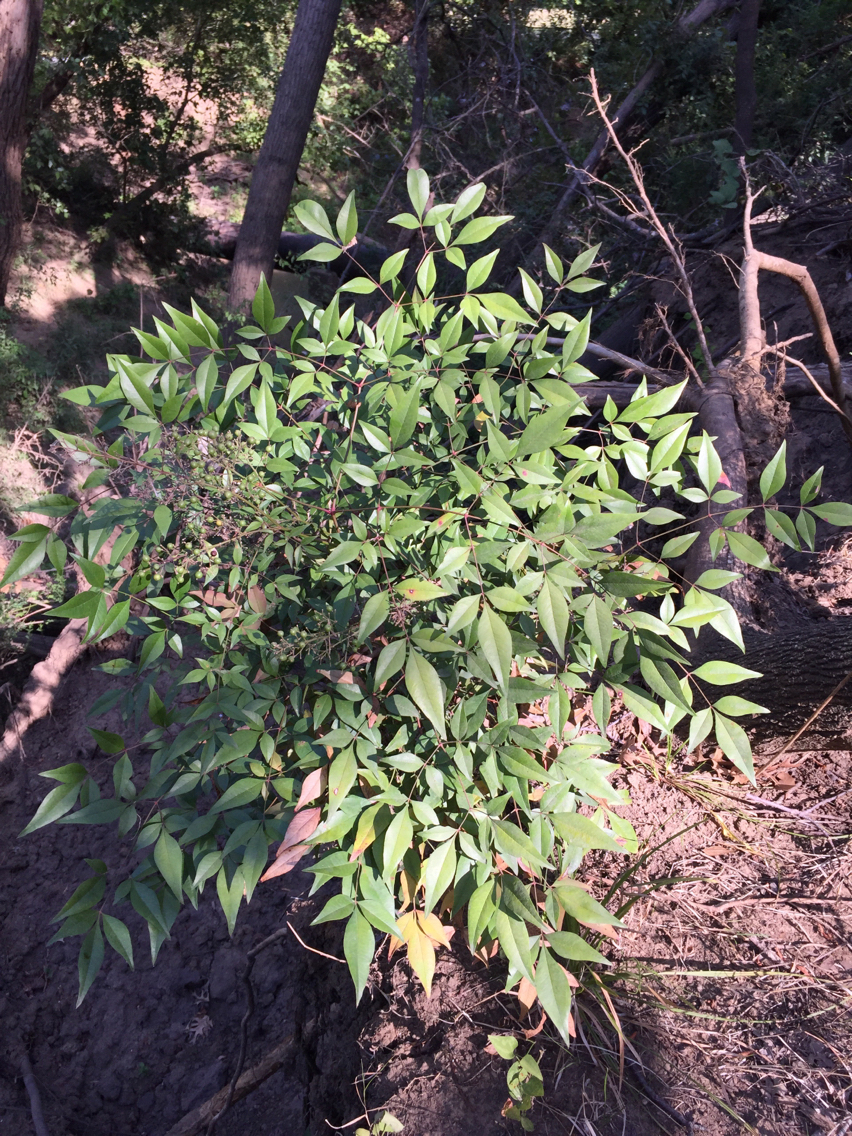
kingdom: Plantae
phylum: Tracheophyta
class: Magnoliopsida
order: Ranunculales
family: Berberidaceae
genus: Nandina
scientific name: Nandina domestica
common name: Sacred bamboo
